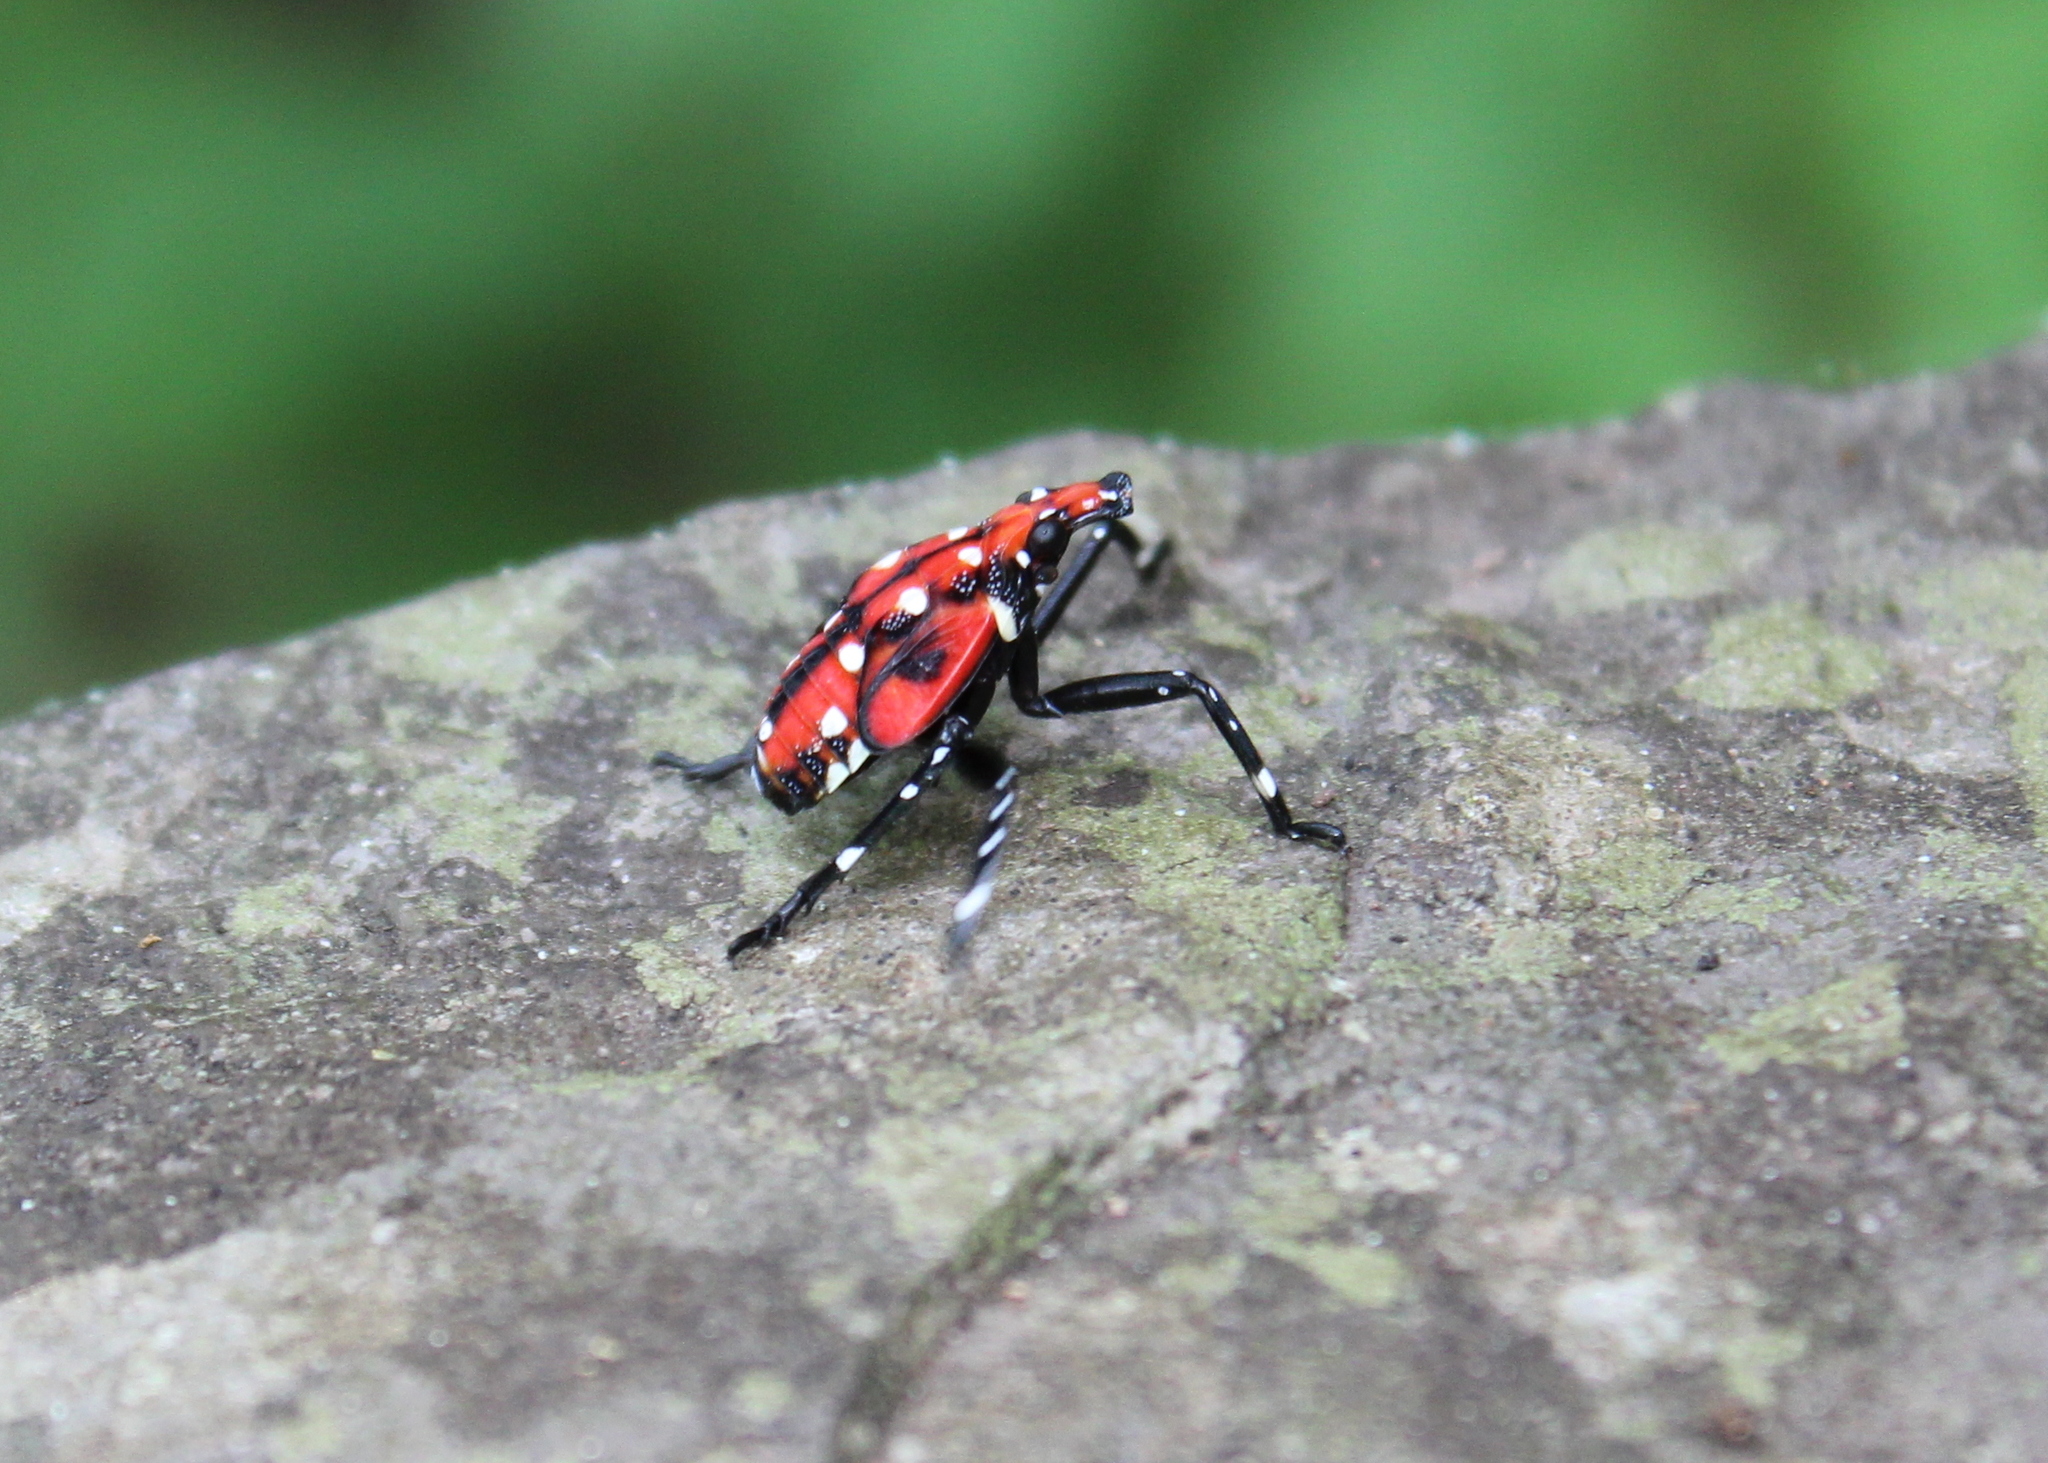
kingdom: Animalia
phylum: Arthropoda
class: Insecta
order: Hemiptera
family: Fulgoridae
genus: Lycorma
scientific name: Lycorma delicatula
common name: Spotted lanternfly
